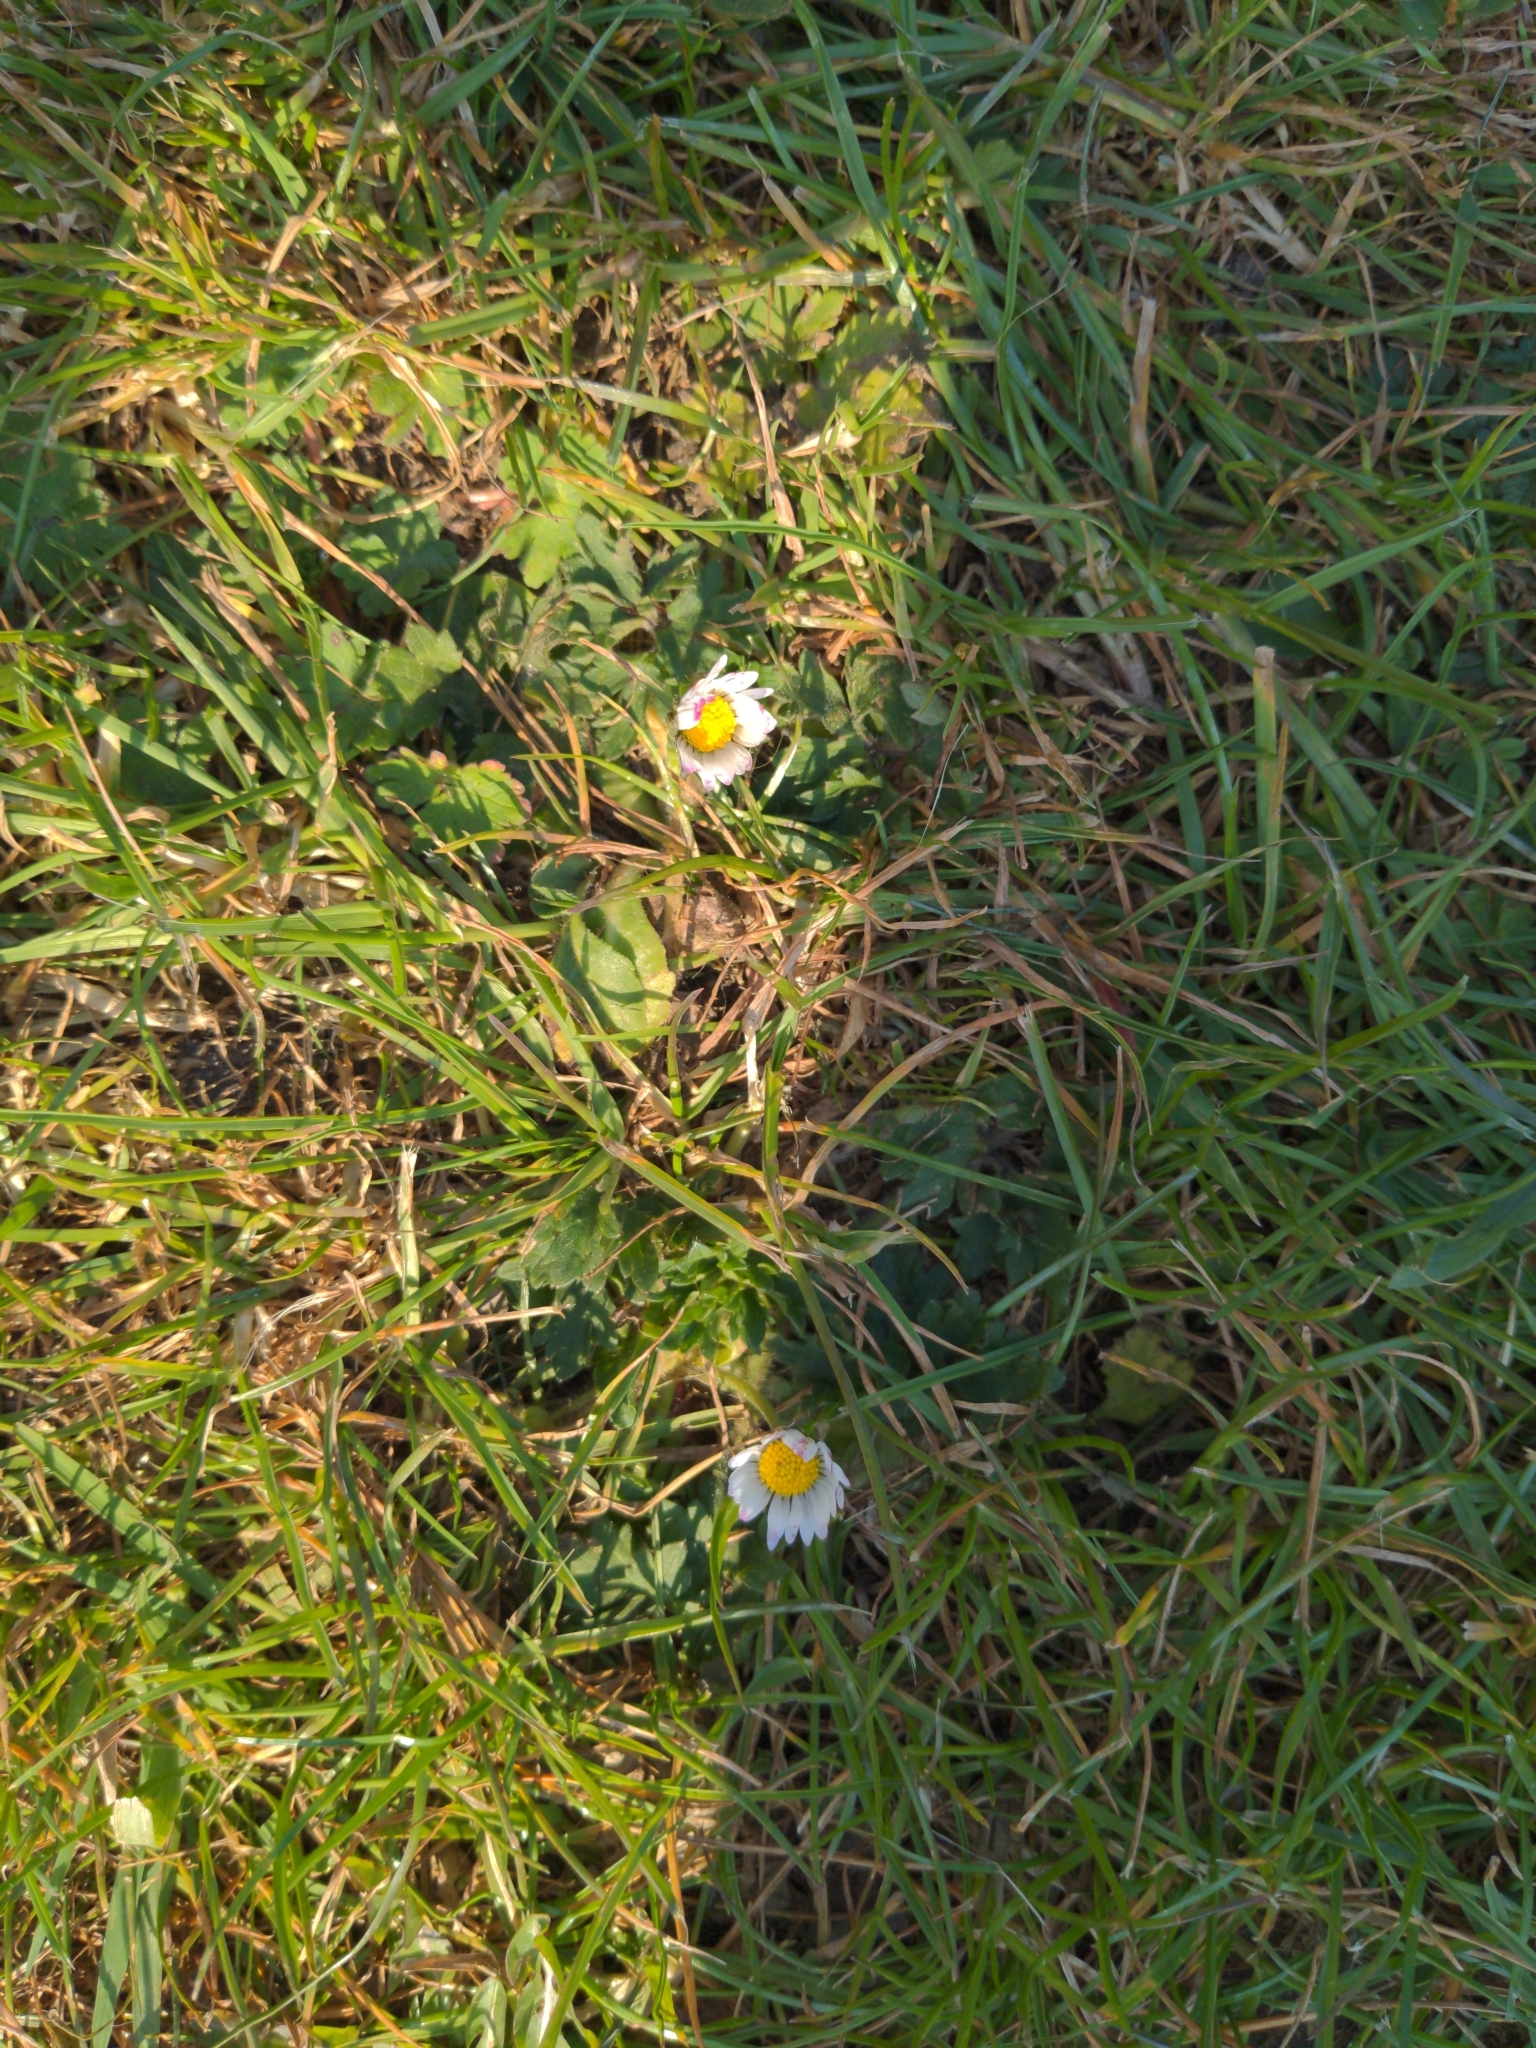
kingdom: Plantae
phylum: Tracheophyta
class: Magnoliopsida
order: Asterales
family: Asteraceae
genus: Bellis
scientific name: Bellis perennis
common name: Lawndaisy
